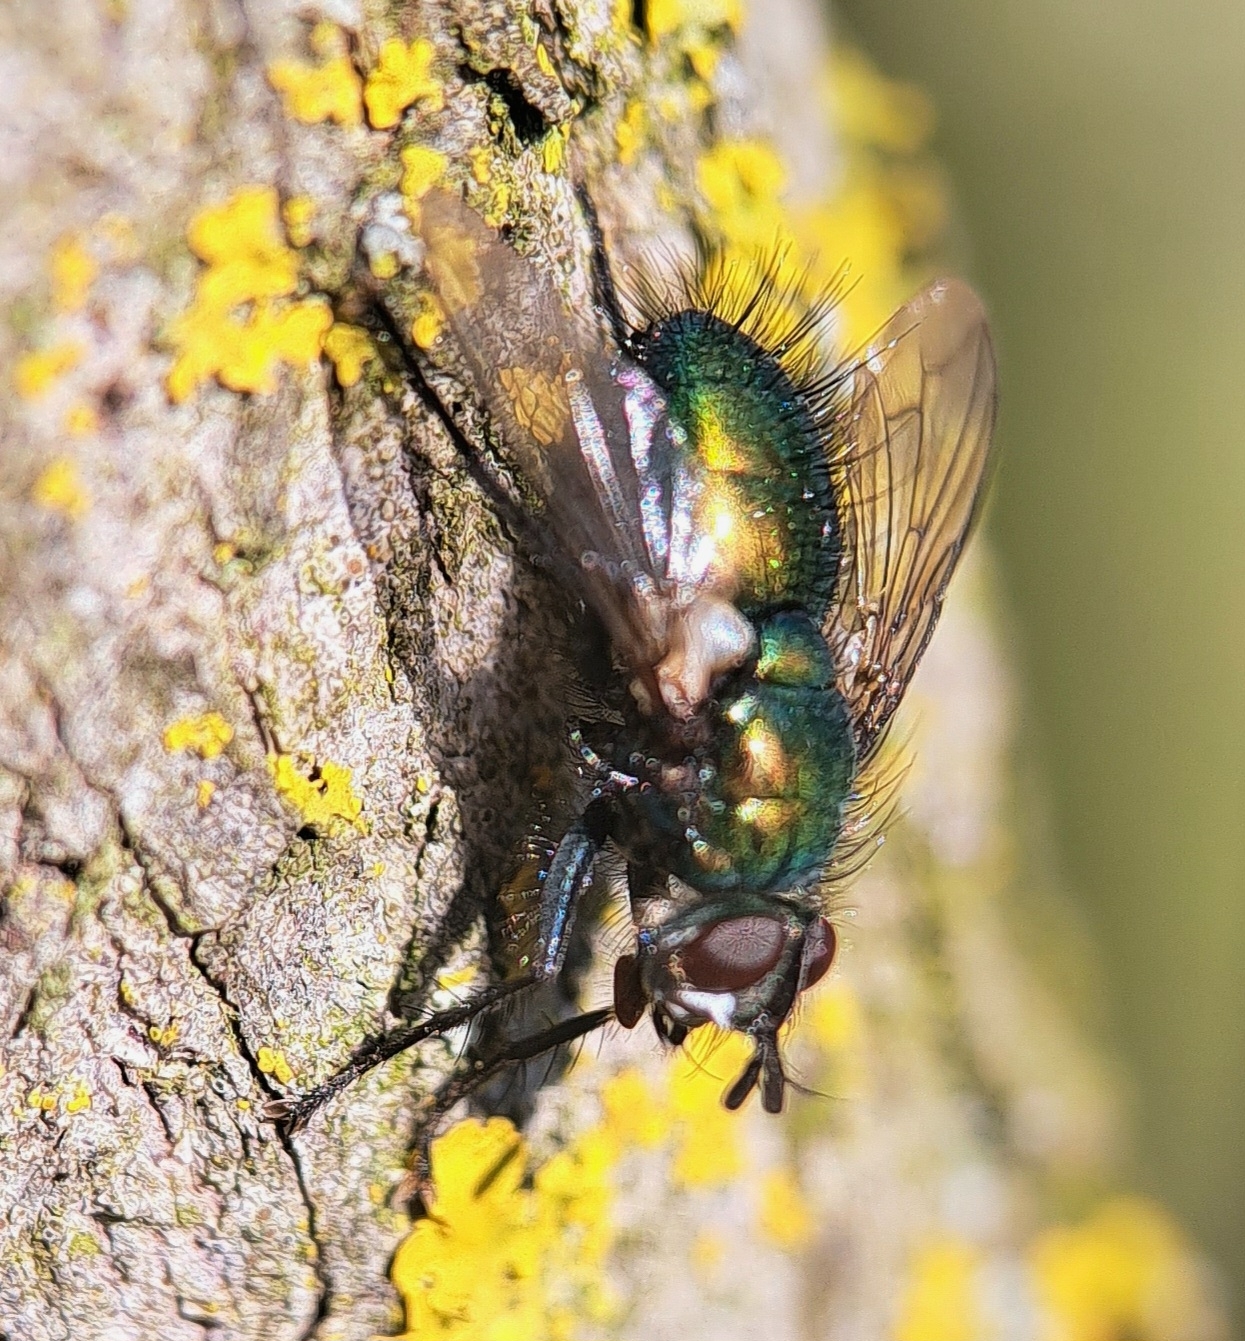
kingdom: Animalia
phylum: Arthropoda
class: Insecta
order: Diptera
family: Tachinidae
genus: Gymnocheta
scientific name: Gymnocheta viridis
